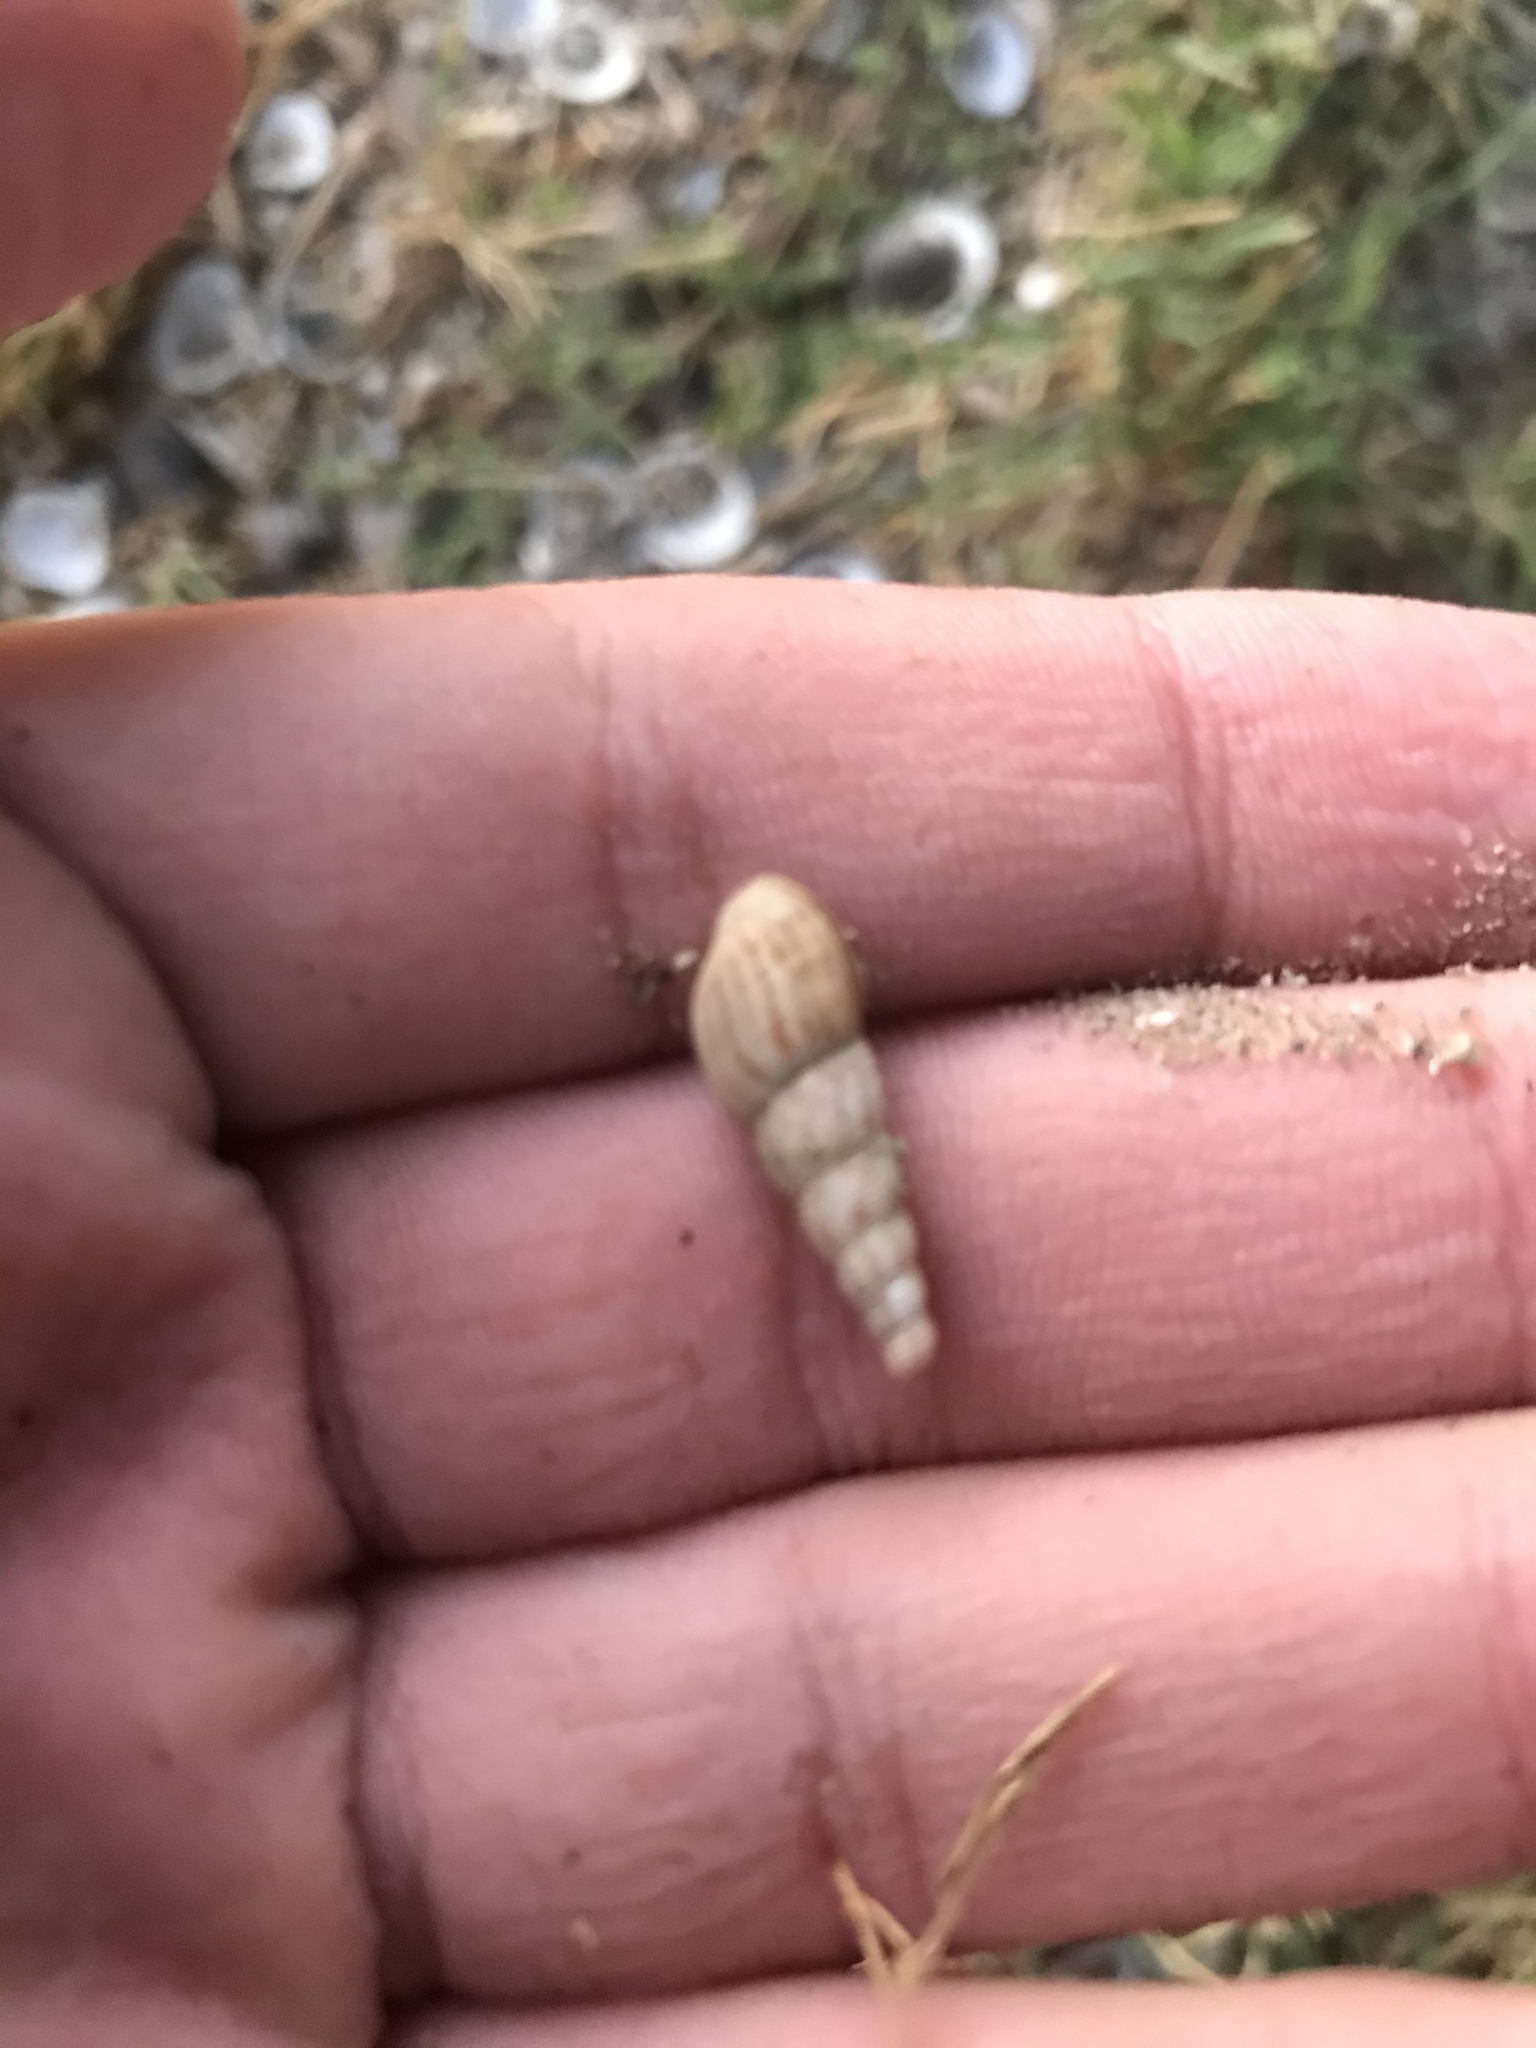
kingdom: Animalia
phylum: Mollusca
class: Gastropoda
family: Thiaridae
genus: Melanoides
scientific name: Melanoides tuberculata
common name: Red-rim melania
